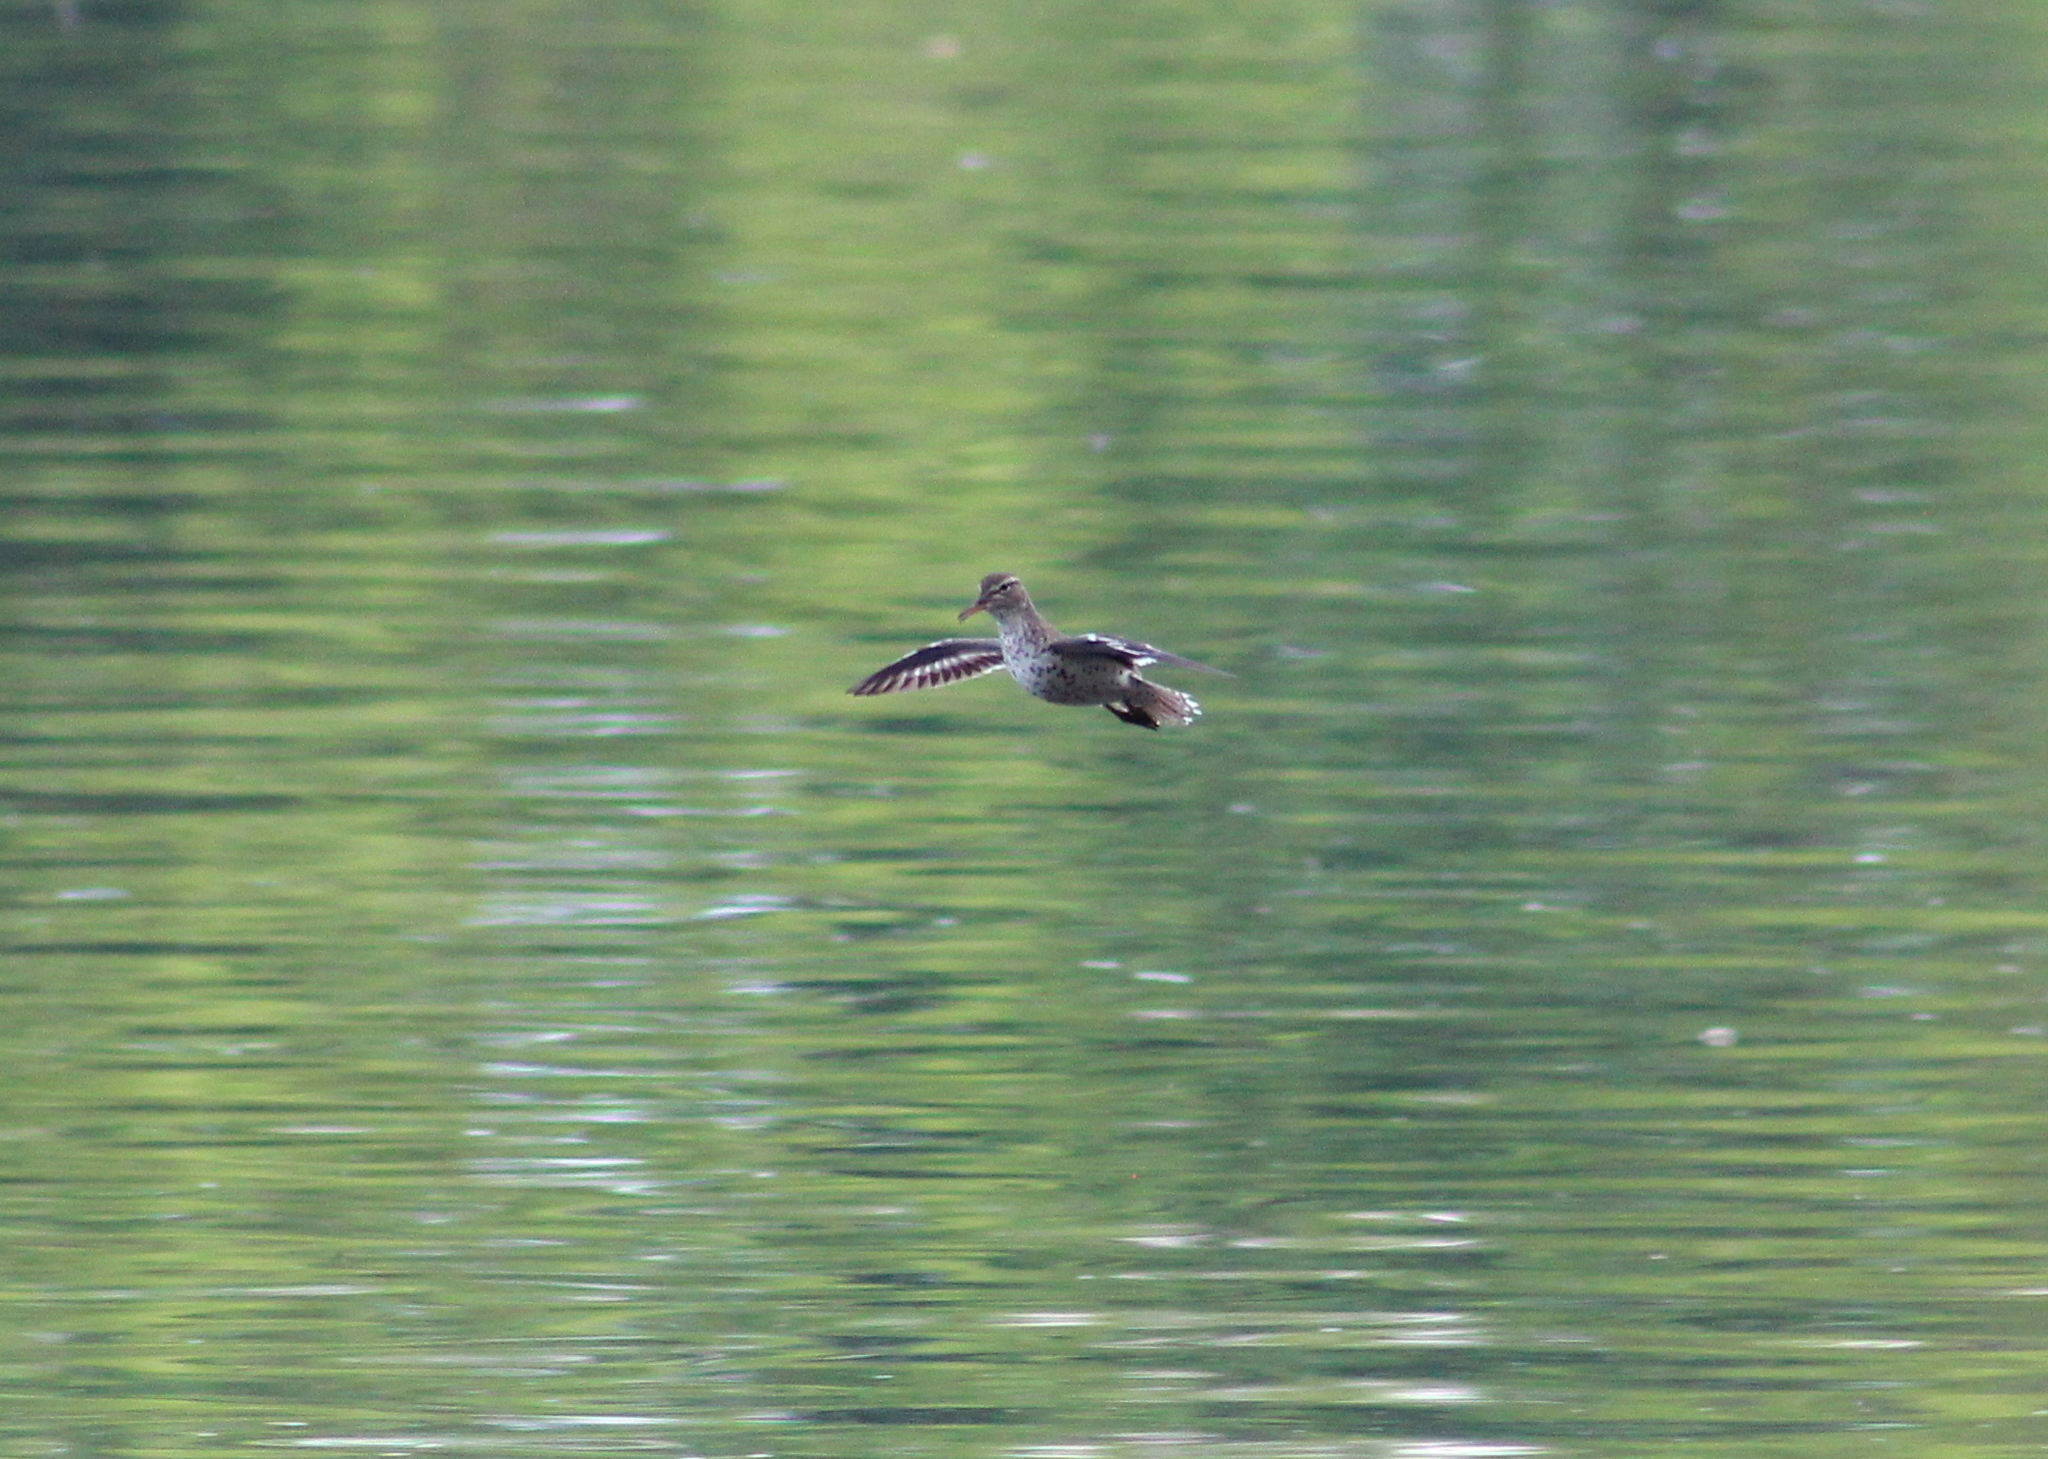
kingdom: Animalia
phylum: Chordata
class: Aves
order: Charadriiformes
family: Scolopacidae
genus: Actitis
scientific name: Actitis macularius
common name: Spotted sandpiper
